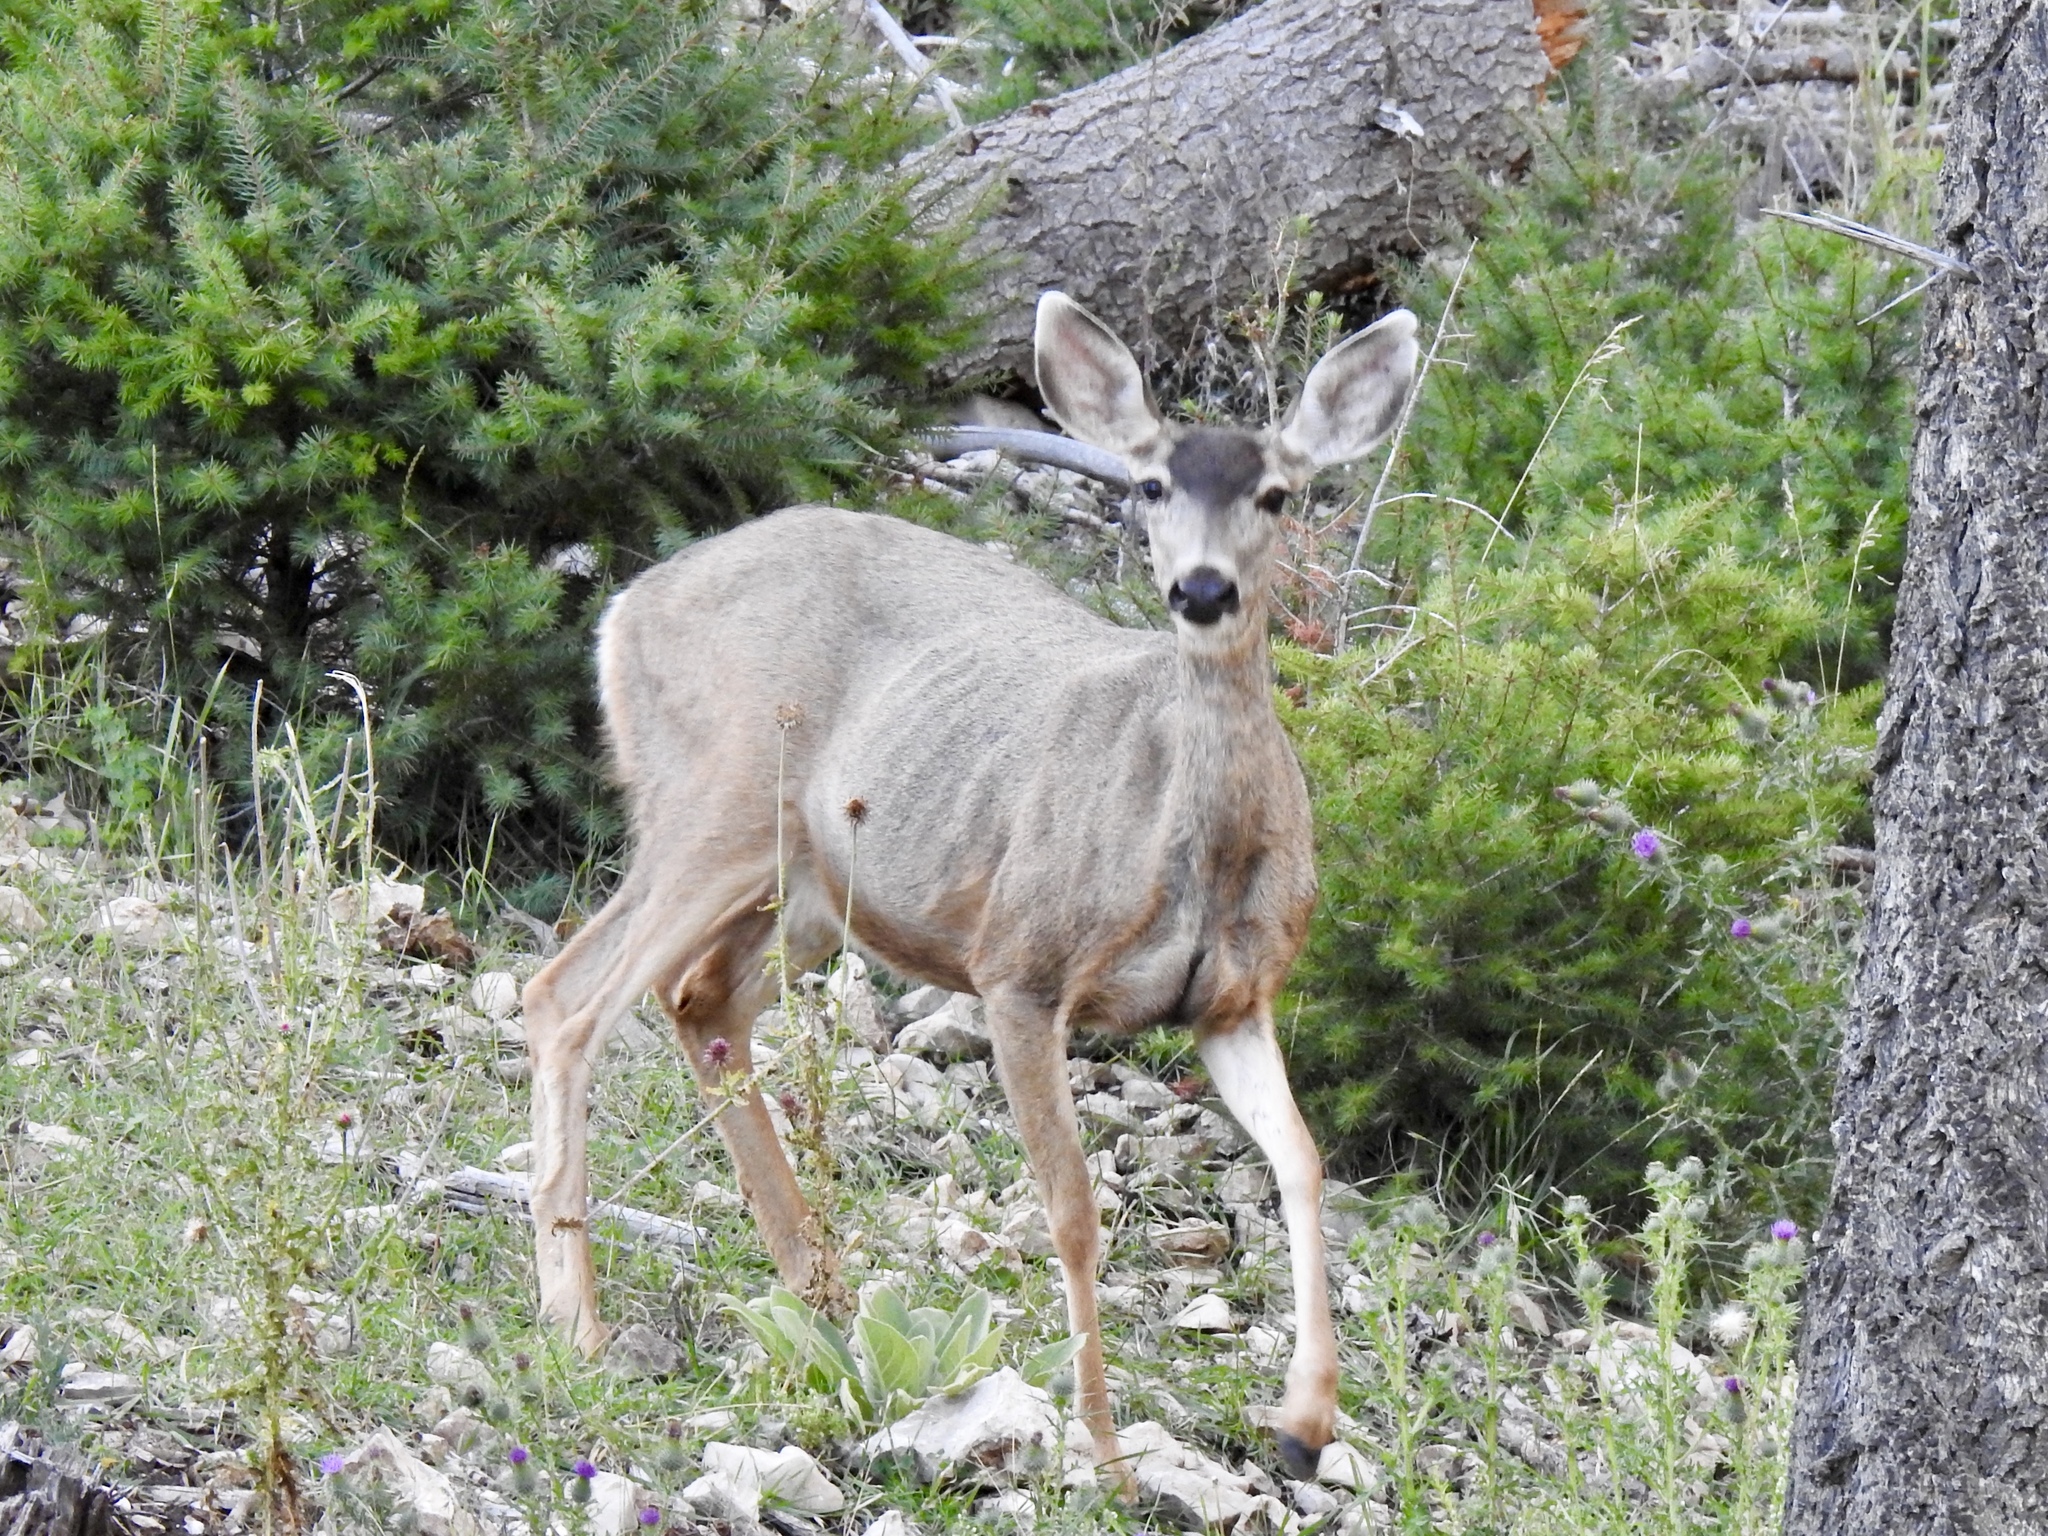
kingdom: Animalia
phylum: Chordata
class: Mammalia
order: Artiodactyla
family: Cervidae
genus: Odocoileus
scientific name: Odocoileus hemionus
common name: Mule deer
